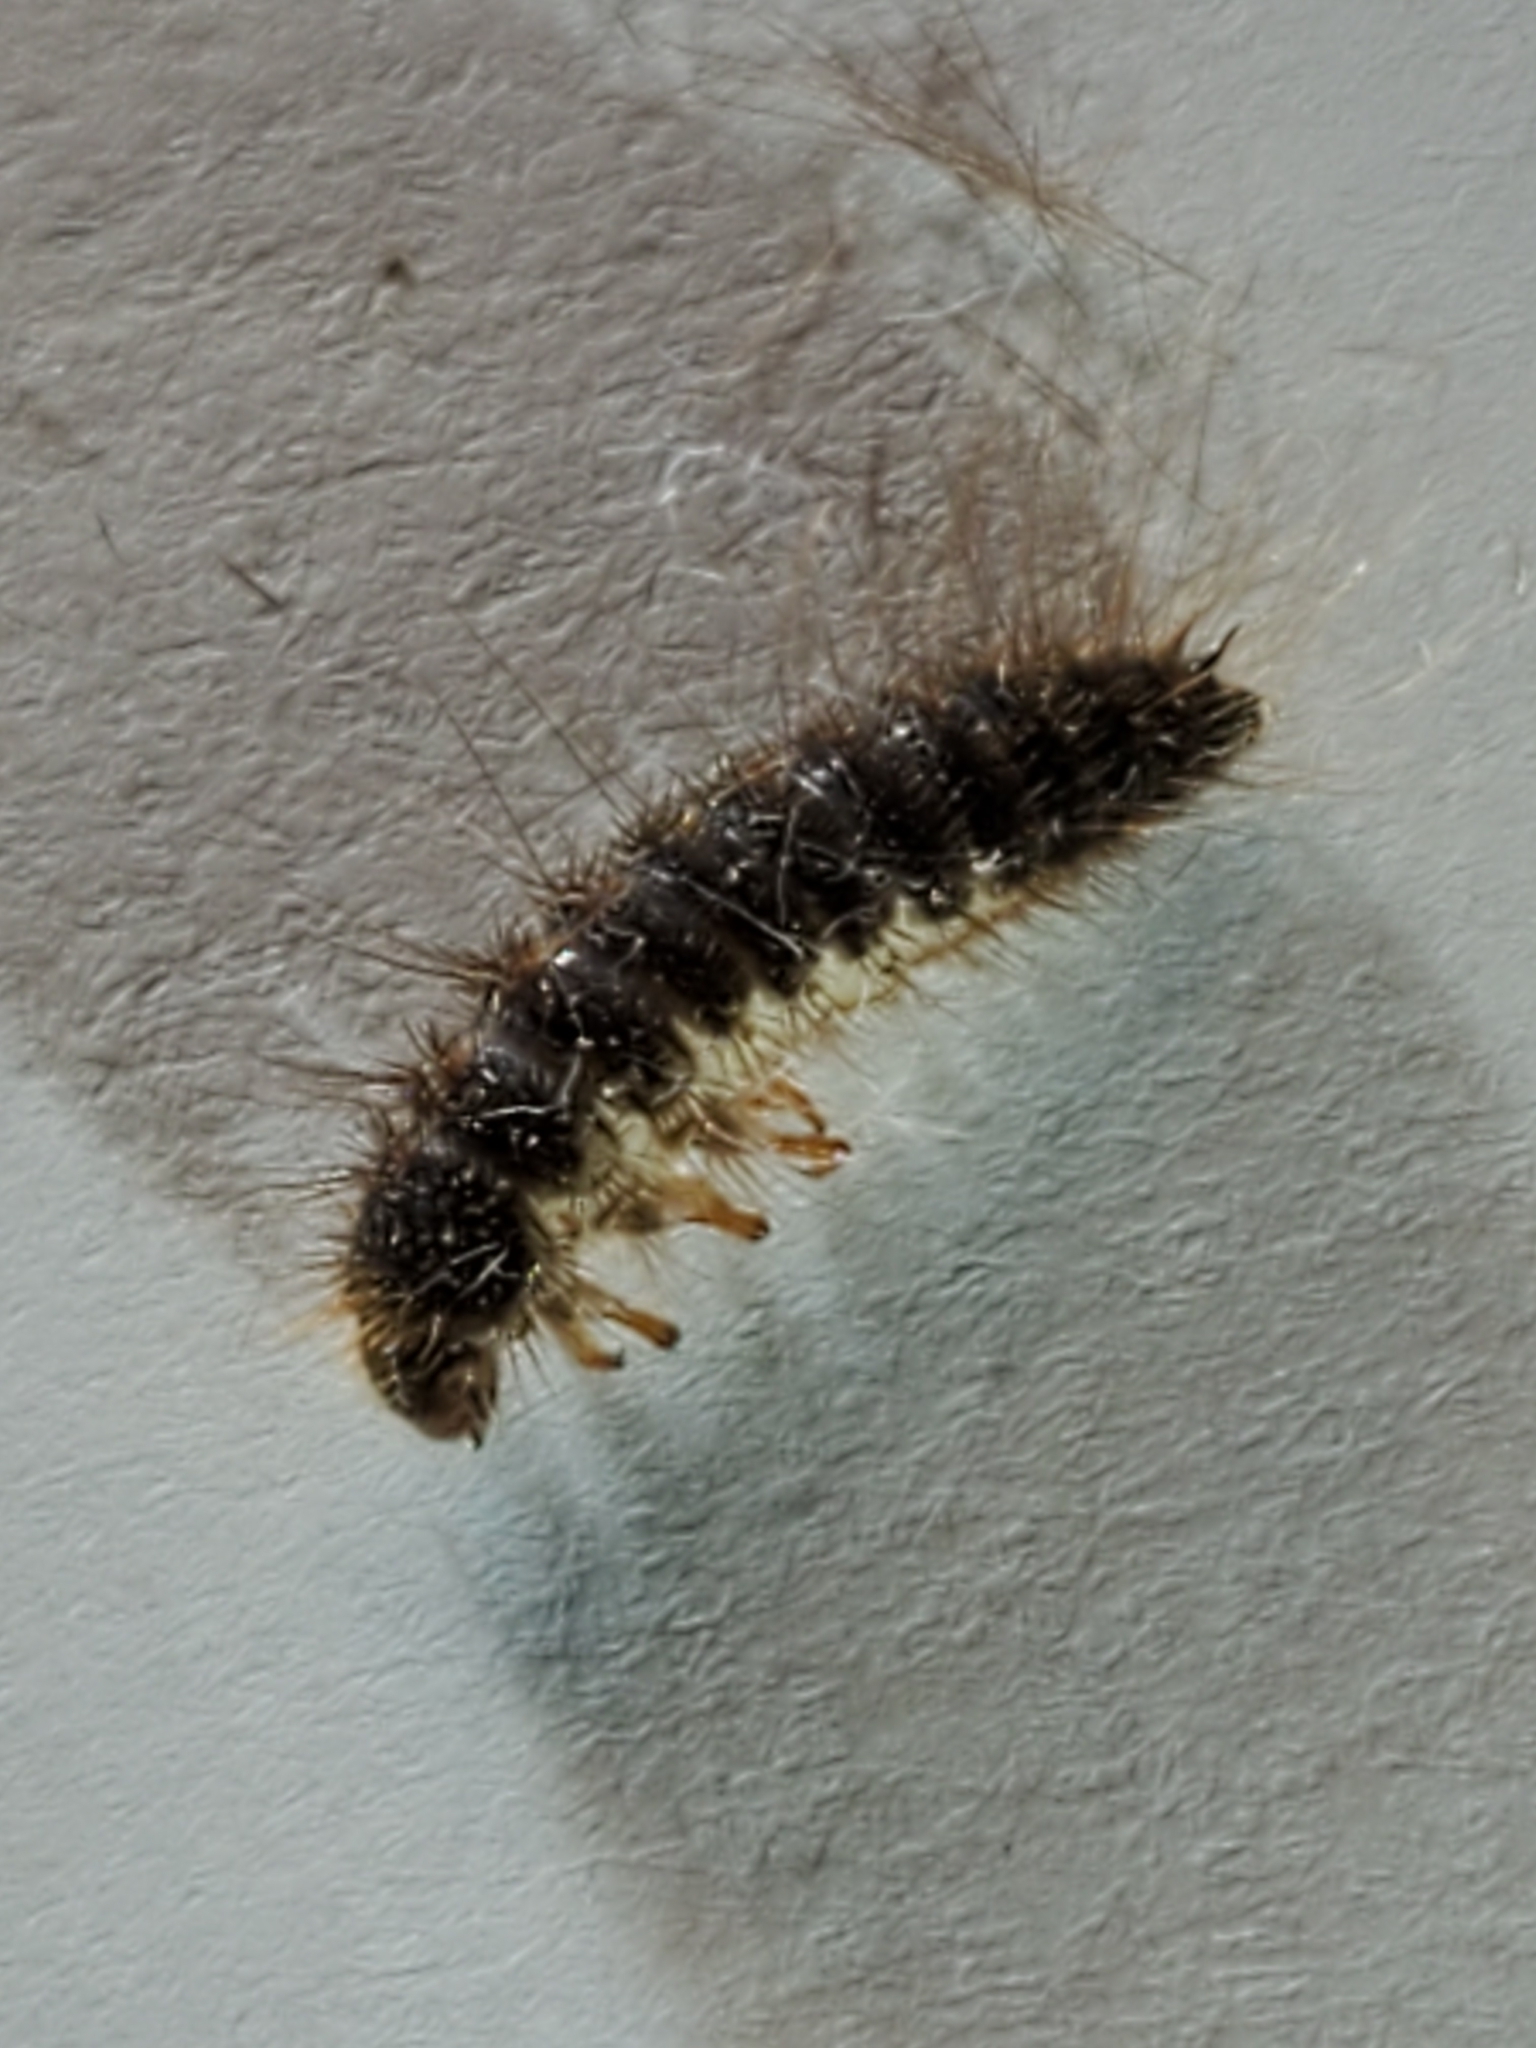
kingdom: Animalia
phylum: Arthropoda
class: Insecta
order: Coleoptera
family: Dermestidae
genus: Dermestes
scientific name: Dermestes lardarius
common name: Larder beetle
